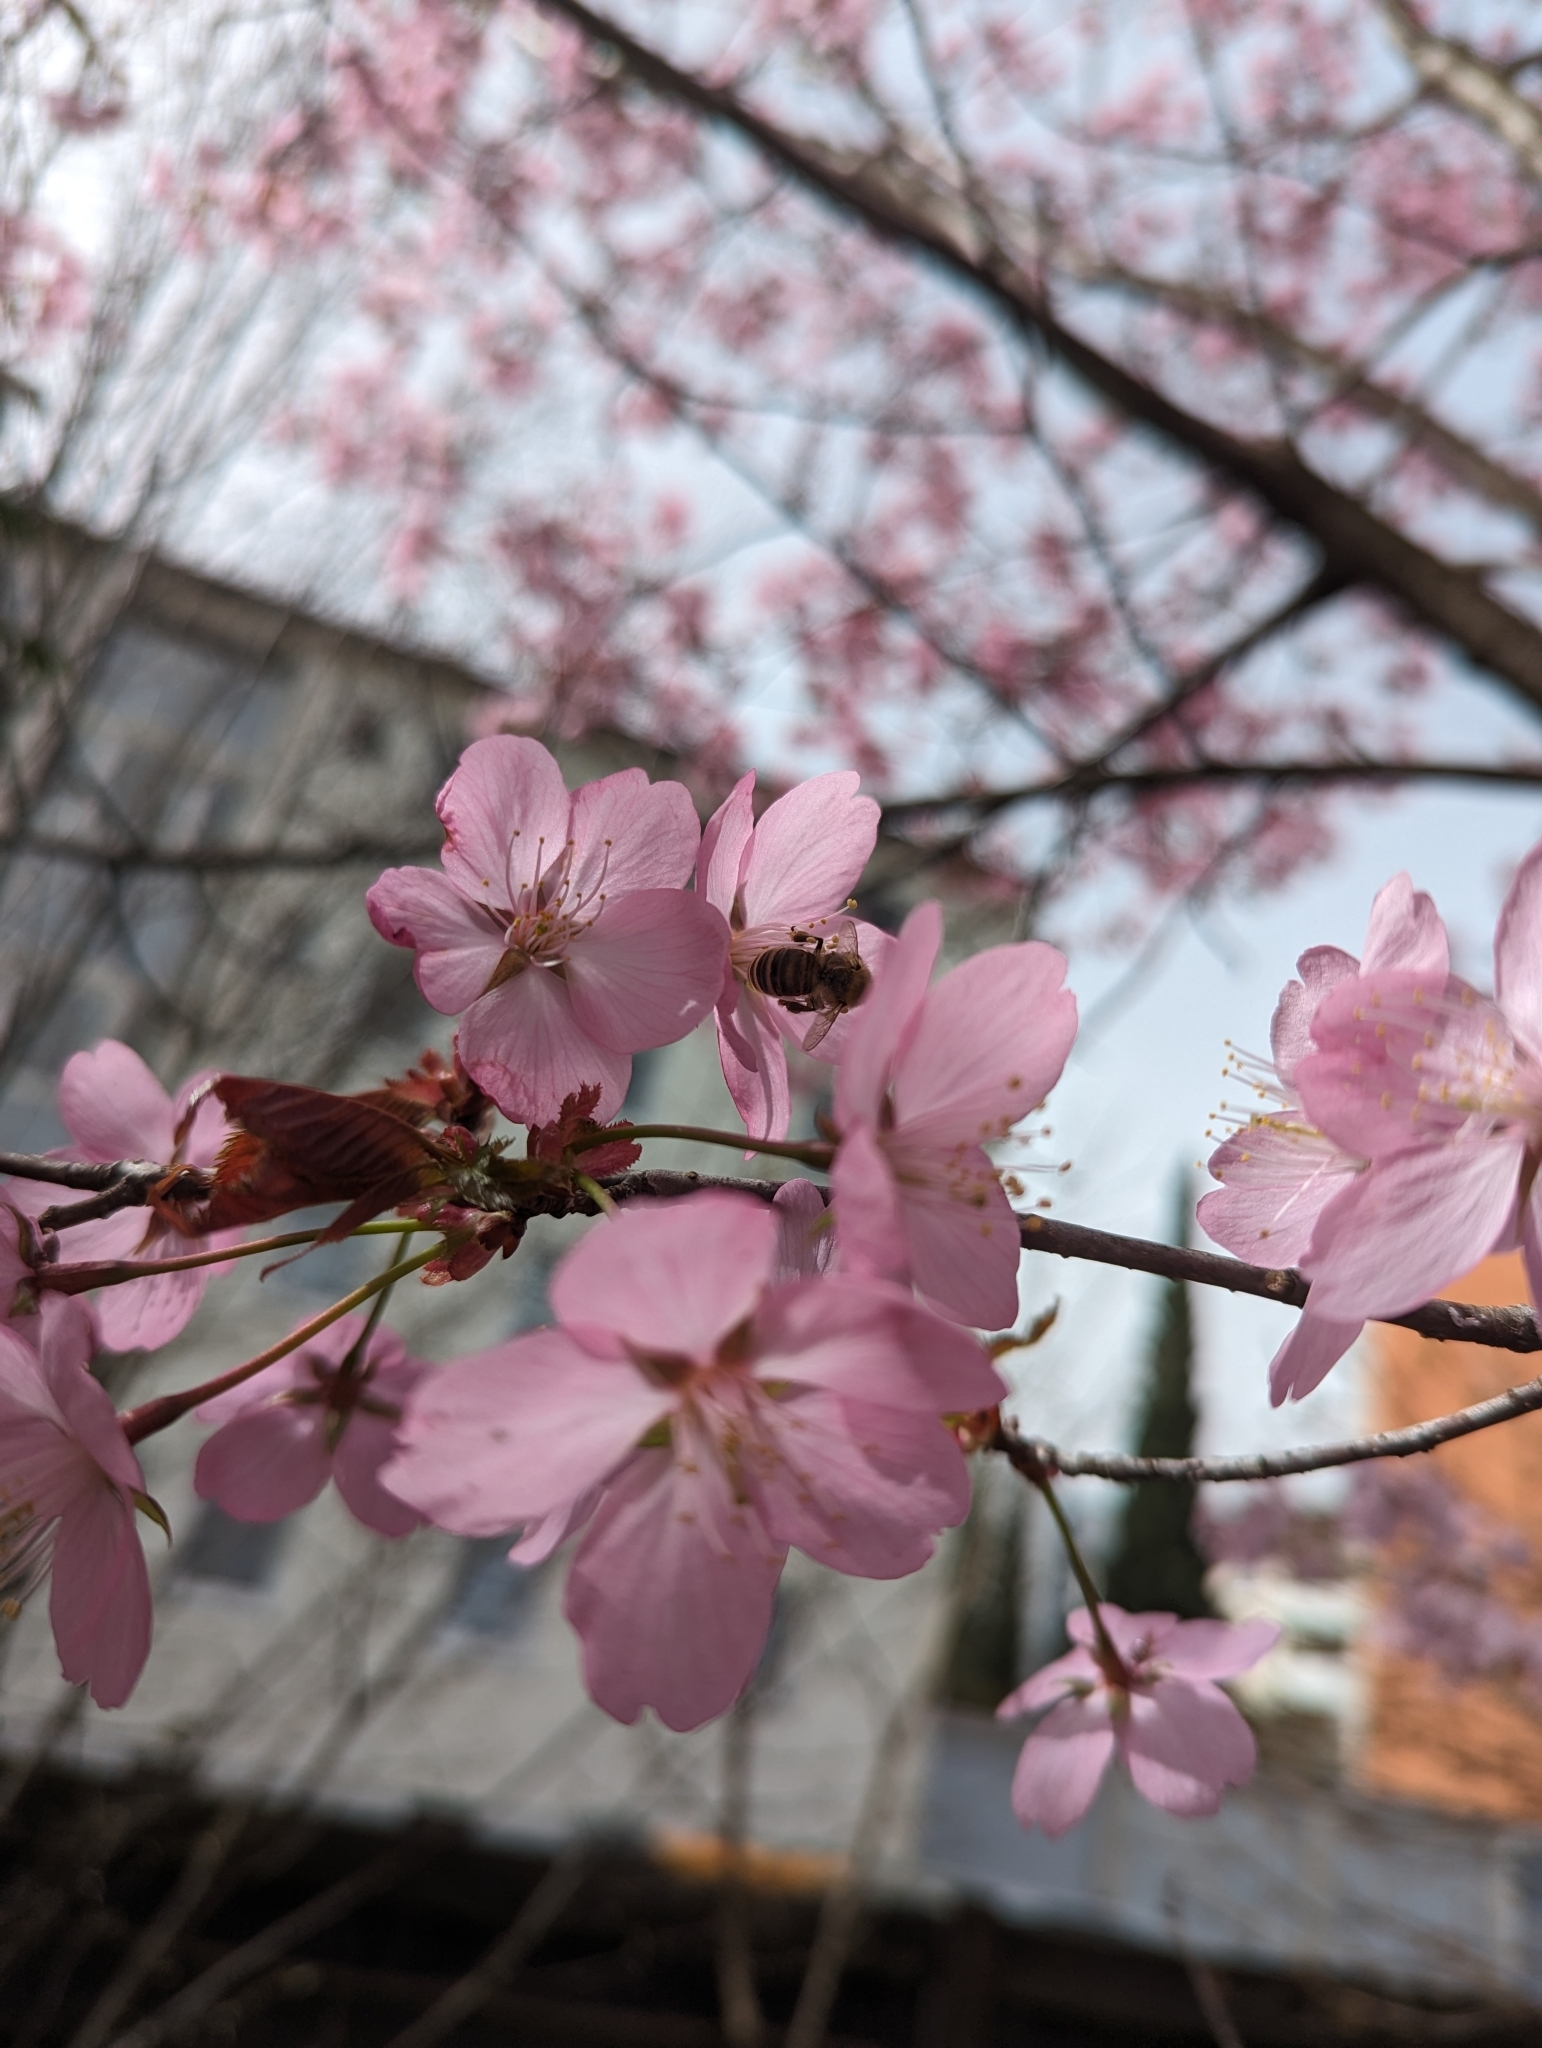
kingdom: Animalia
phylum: Arthropoda
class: Insecta
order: Hymenoptera
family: Apidae
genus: Apis
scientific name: Apis mellifera
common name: Honey bee
